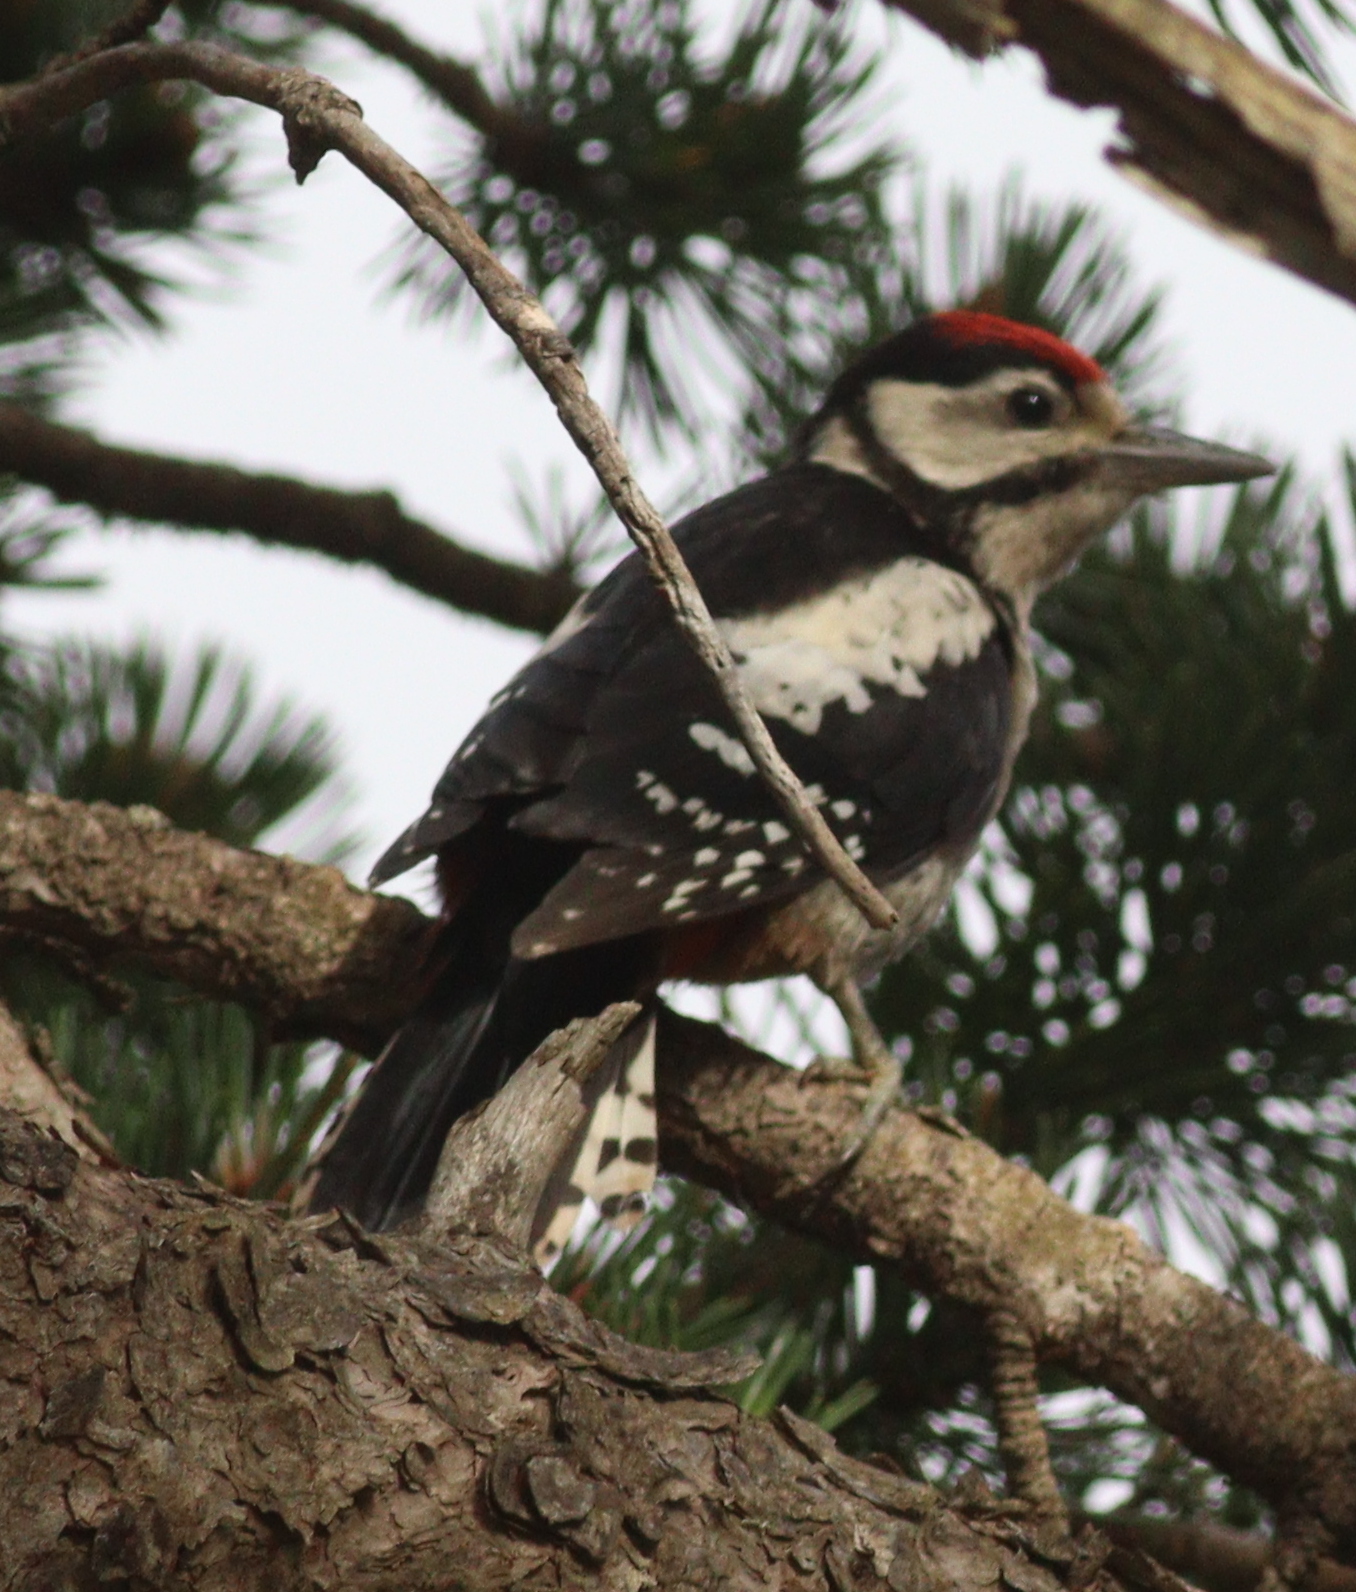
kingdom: Animalia
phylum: Chordata
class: Aves
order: Piciformes
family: Picidae
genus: Dendrocopos
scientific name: Dendrocopos major
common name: Great spotted woodpecker
